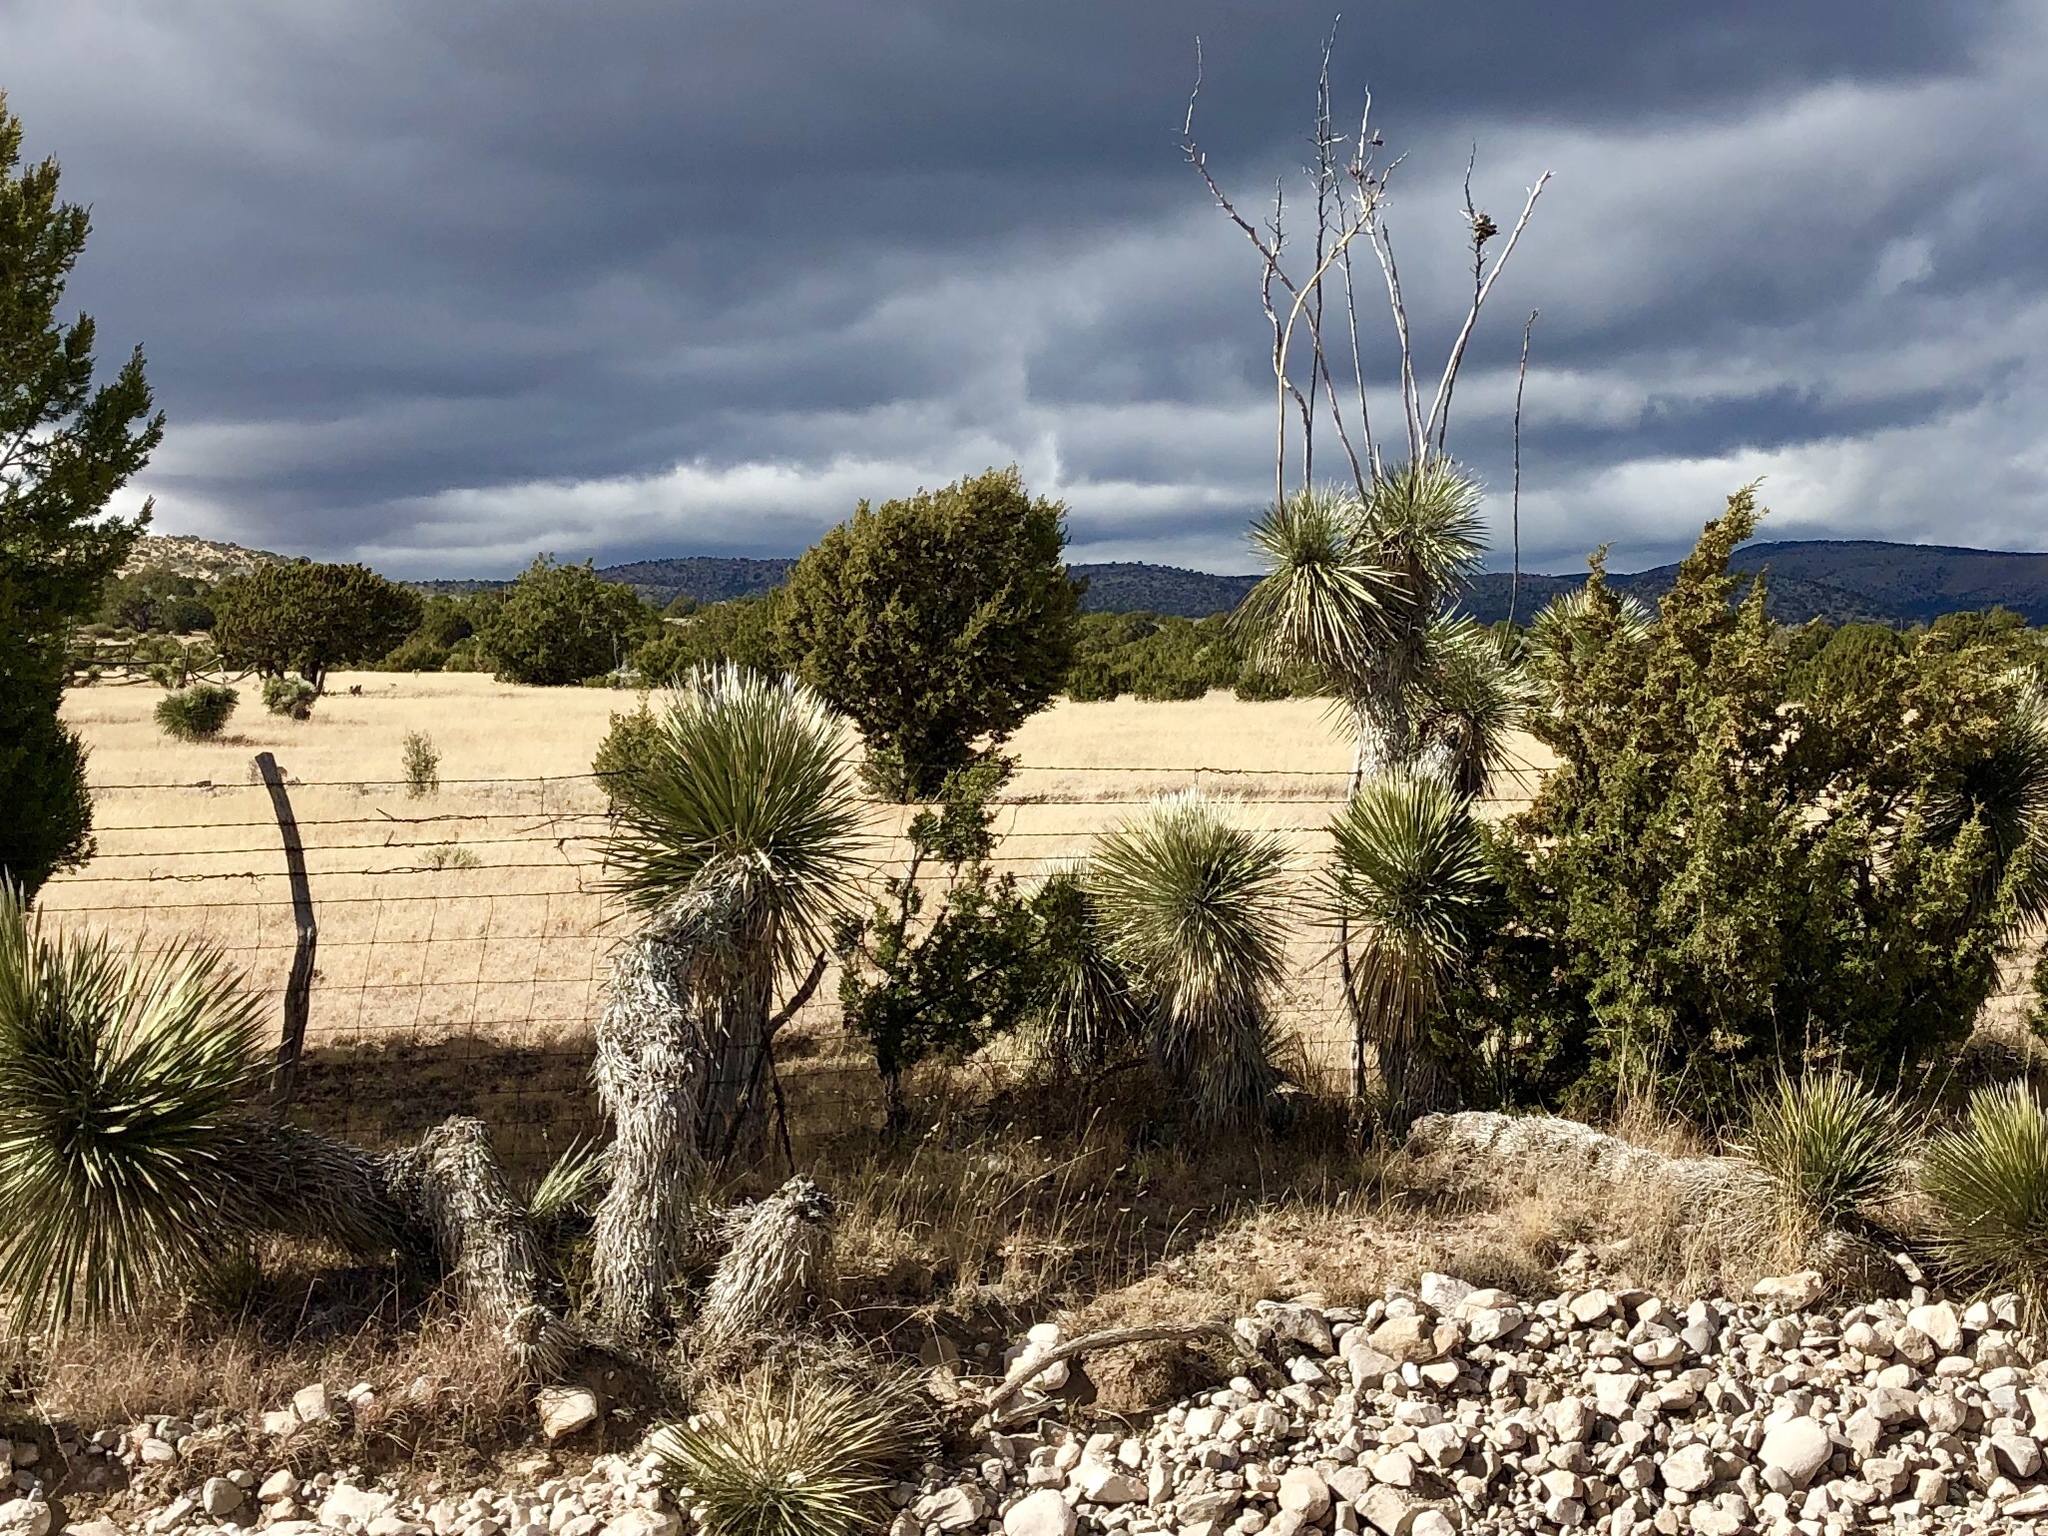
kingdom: Plantae
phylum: Tracheophyta
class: Liliopsida
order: Asparagales
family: Asparagaceae
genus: Yucca
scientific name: Yucca elata
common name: Palmella
